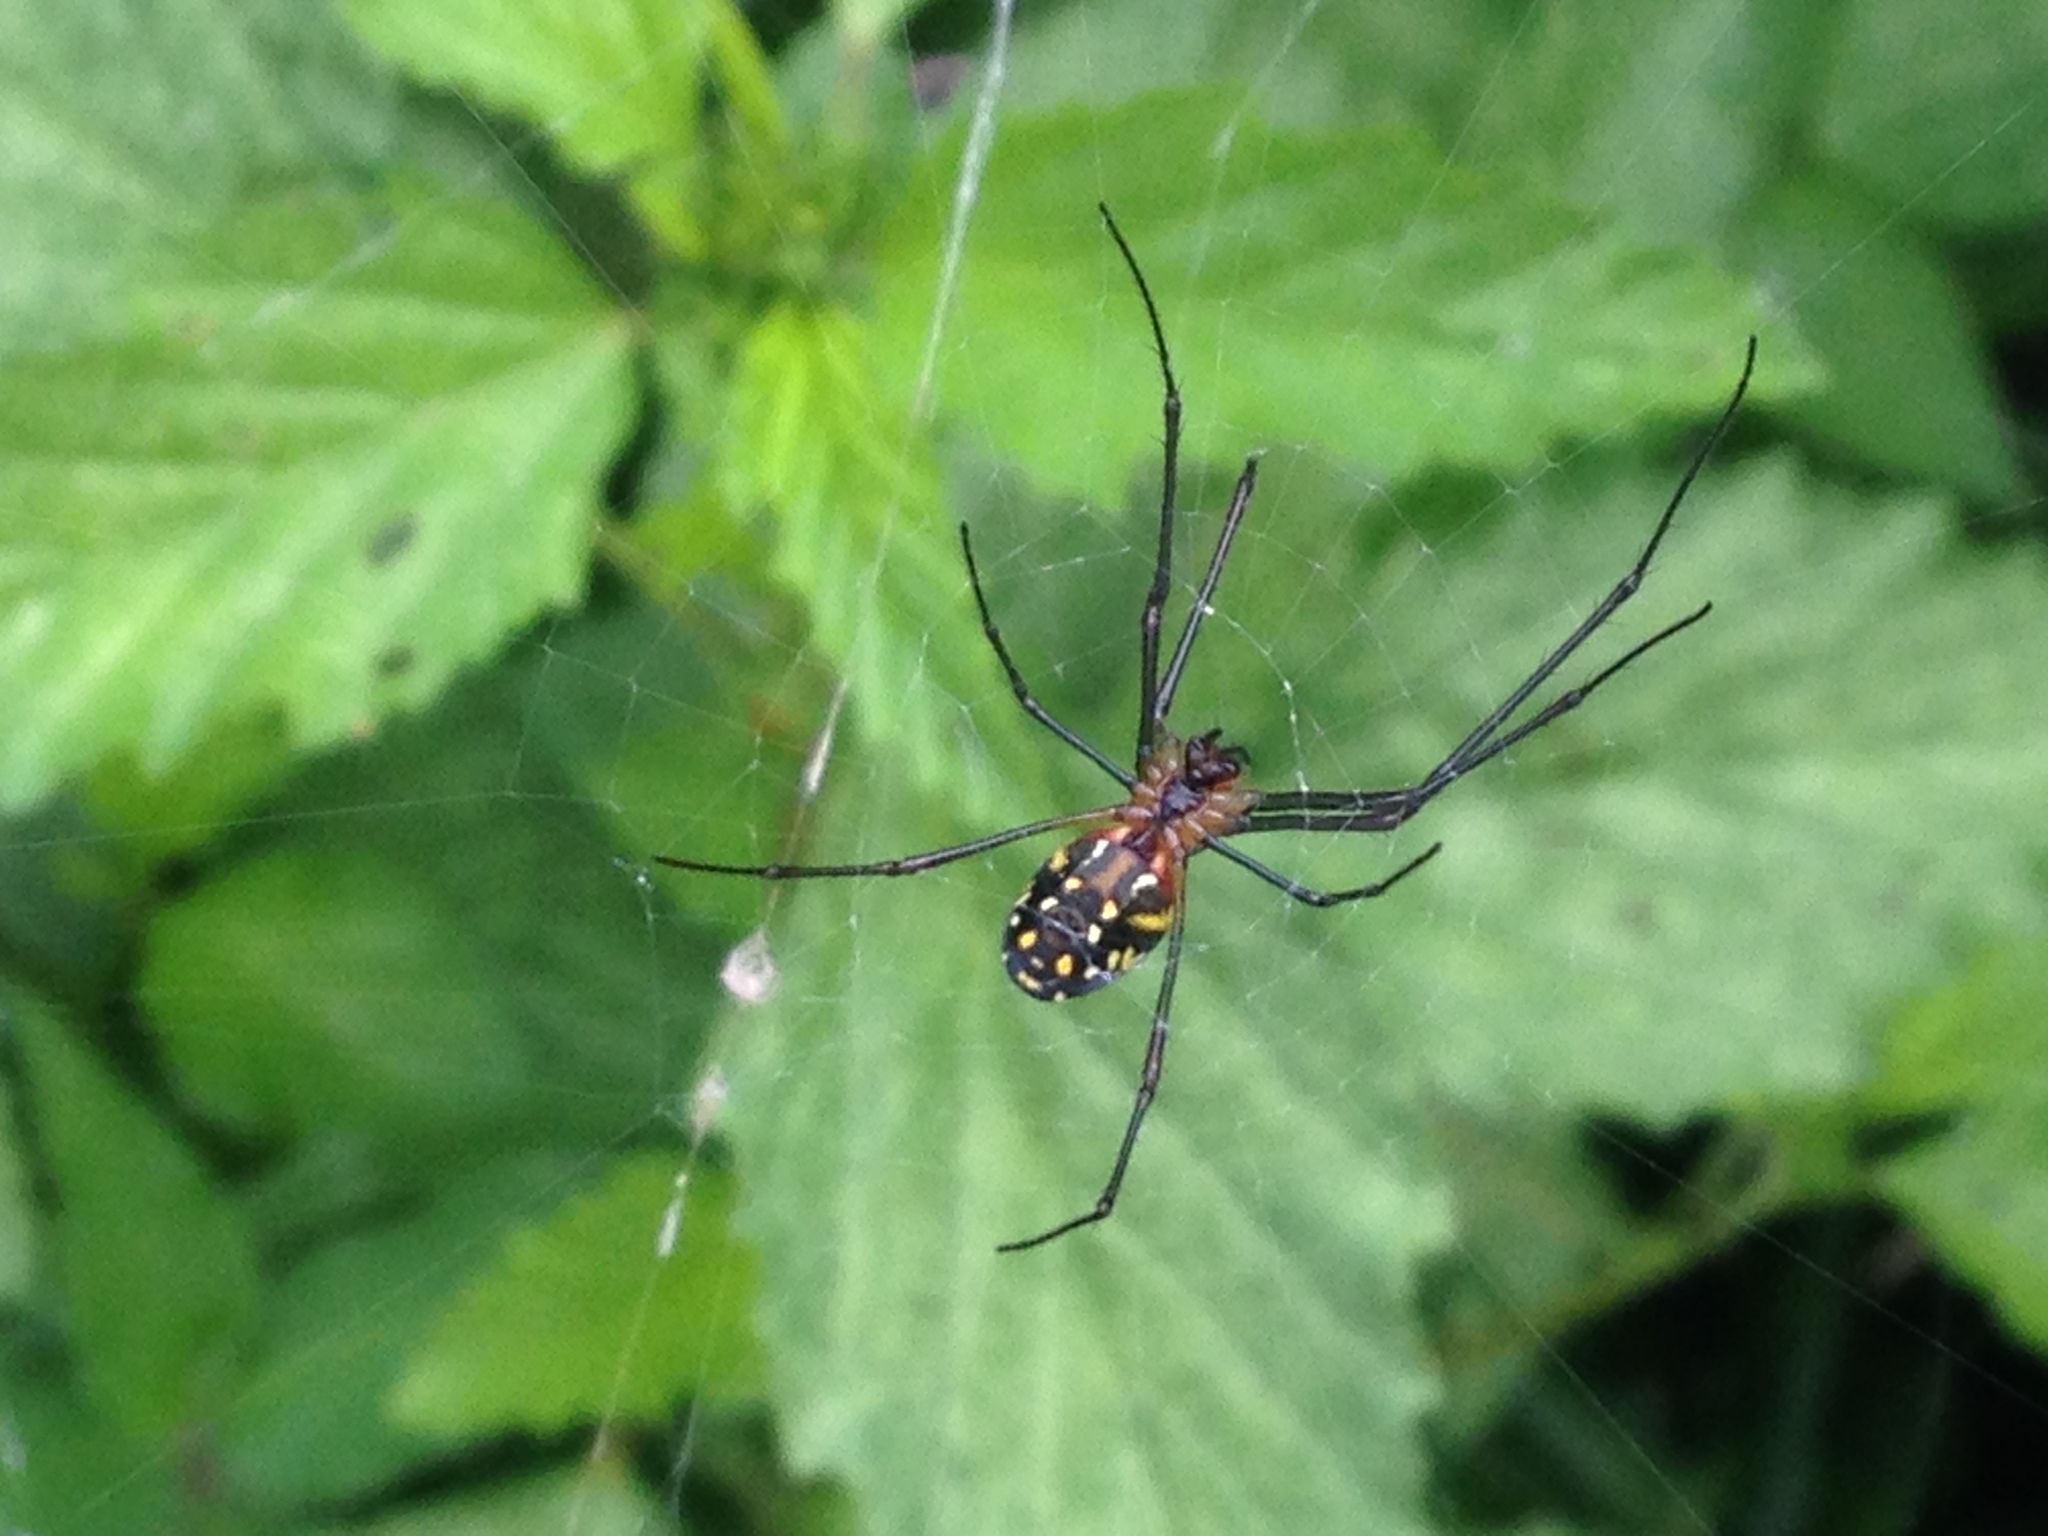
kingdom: Animalia
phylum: Arthropoda
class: Arachnida
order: Araneae
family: Tetragnathidae
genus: Leucauge
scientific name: Leucauge argyra
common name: Longjawed orb weavers
